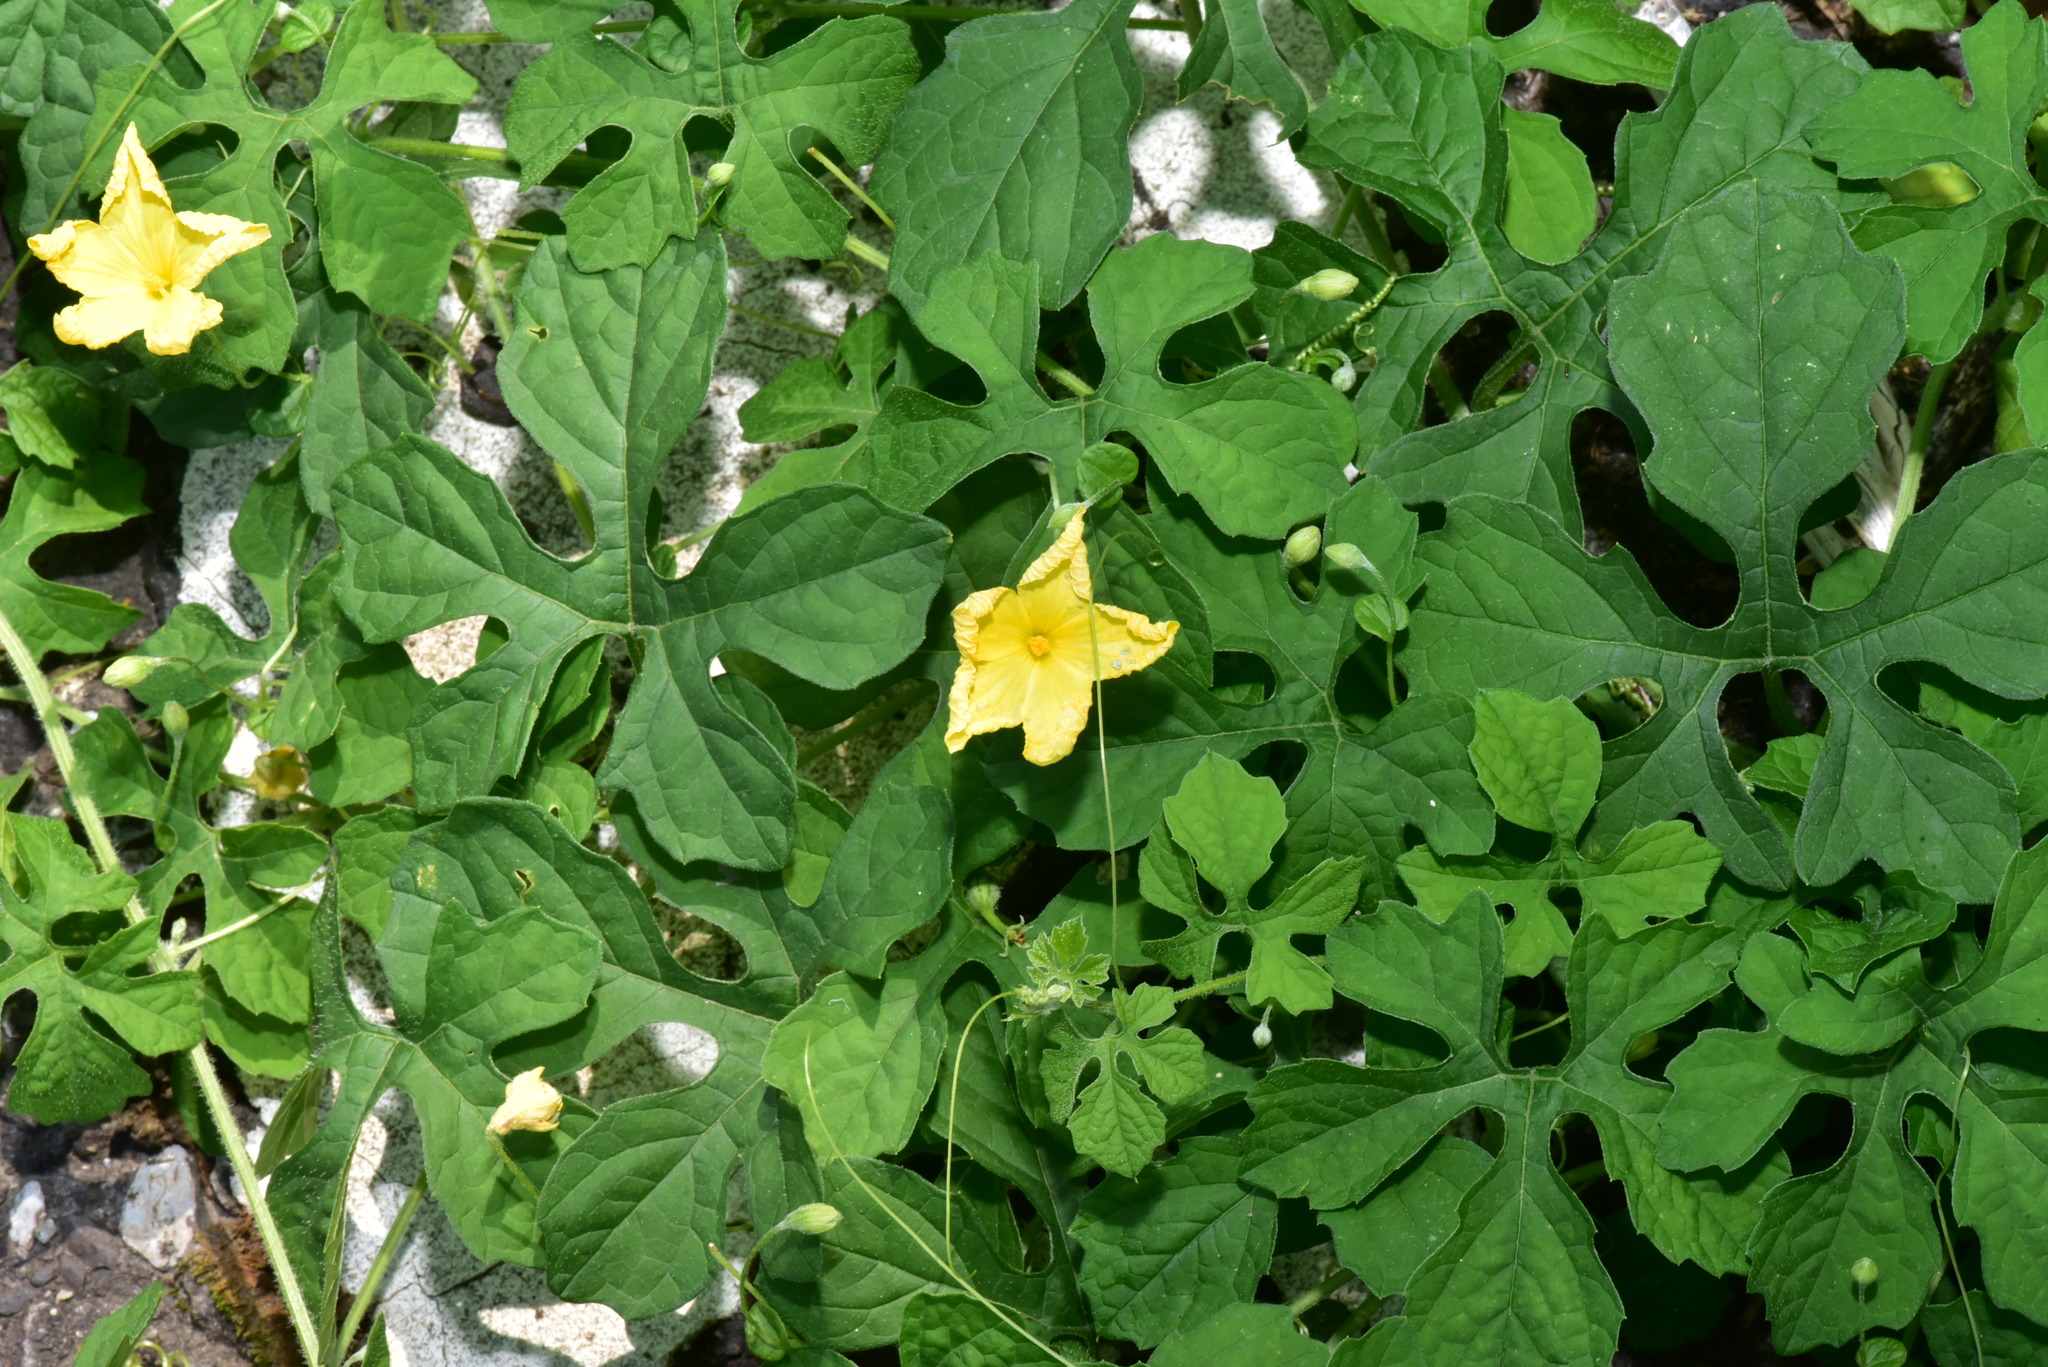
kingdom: Plantae
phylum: Tracheophyta
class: Magnoliopsida
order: Cucurbitales
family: Cucurbitaceae
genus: Momordica
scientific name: Momordica charantia
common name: Balsampear
